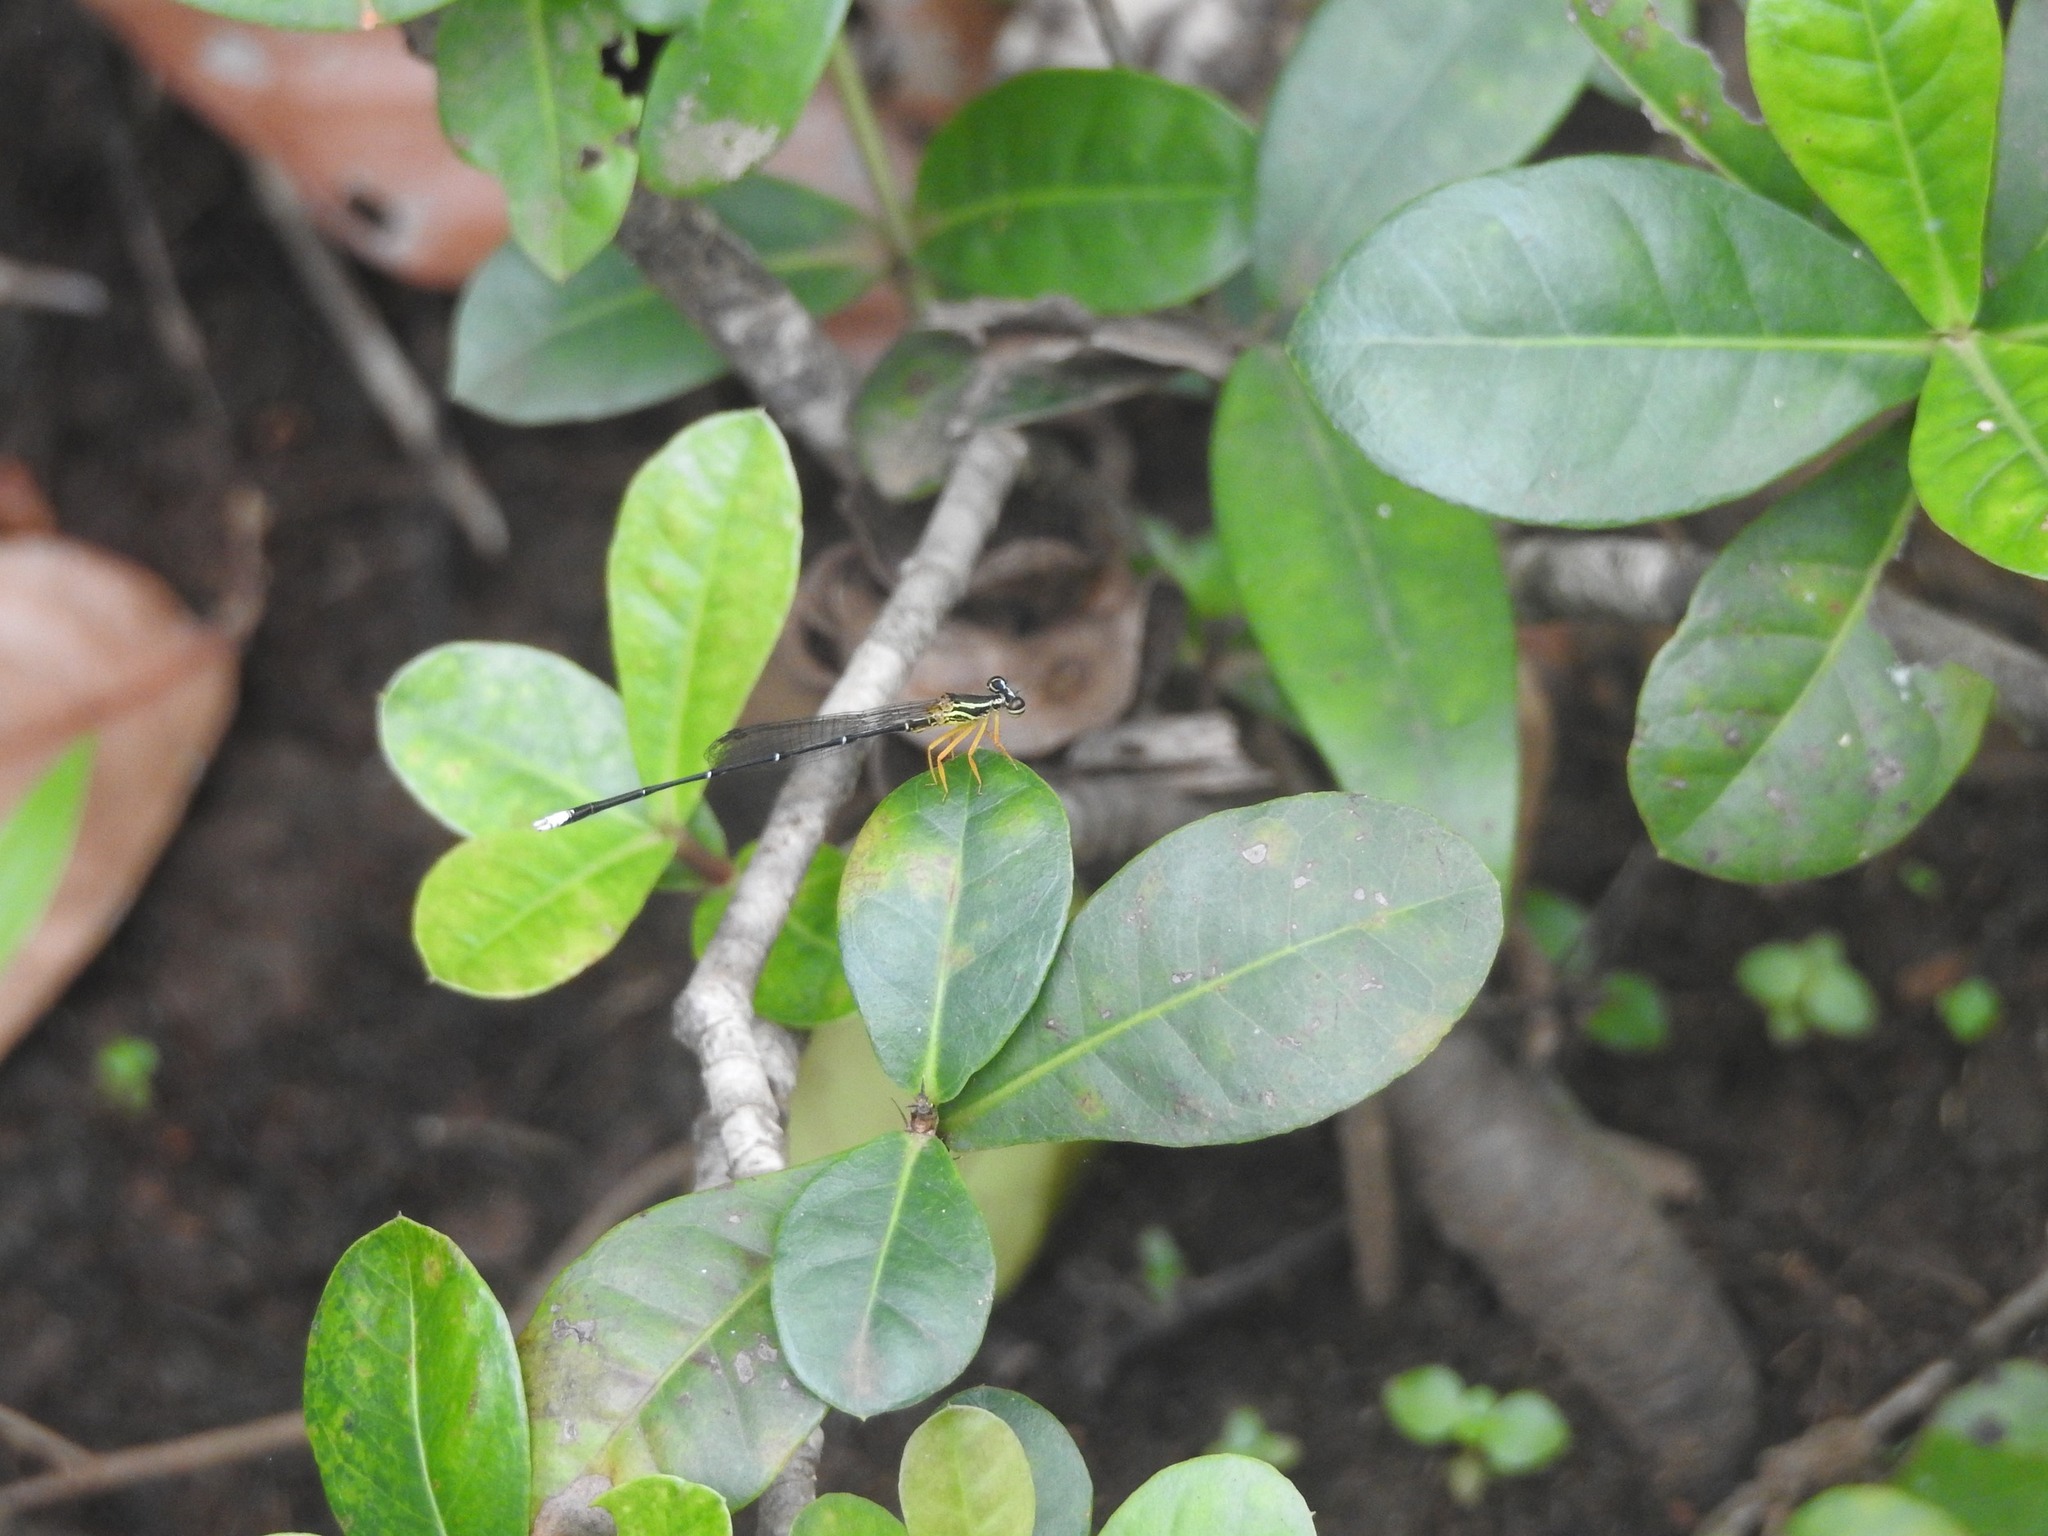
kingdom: Animalia
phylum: Arthropoda
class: Insecta
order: Odonata
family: Platycnemididae
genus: Copera
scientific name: Copera marginipes
